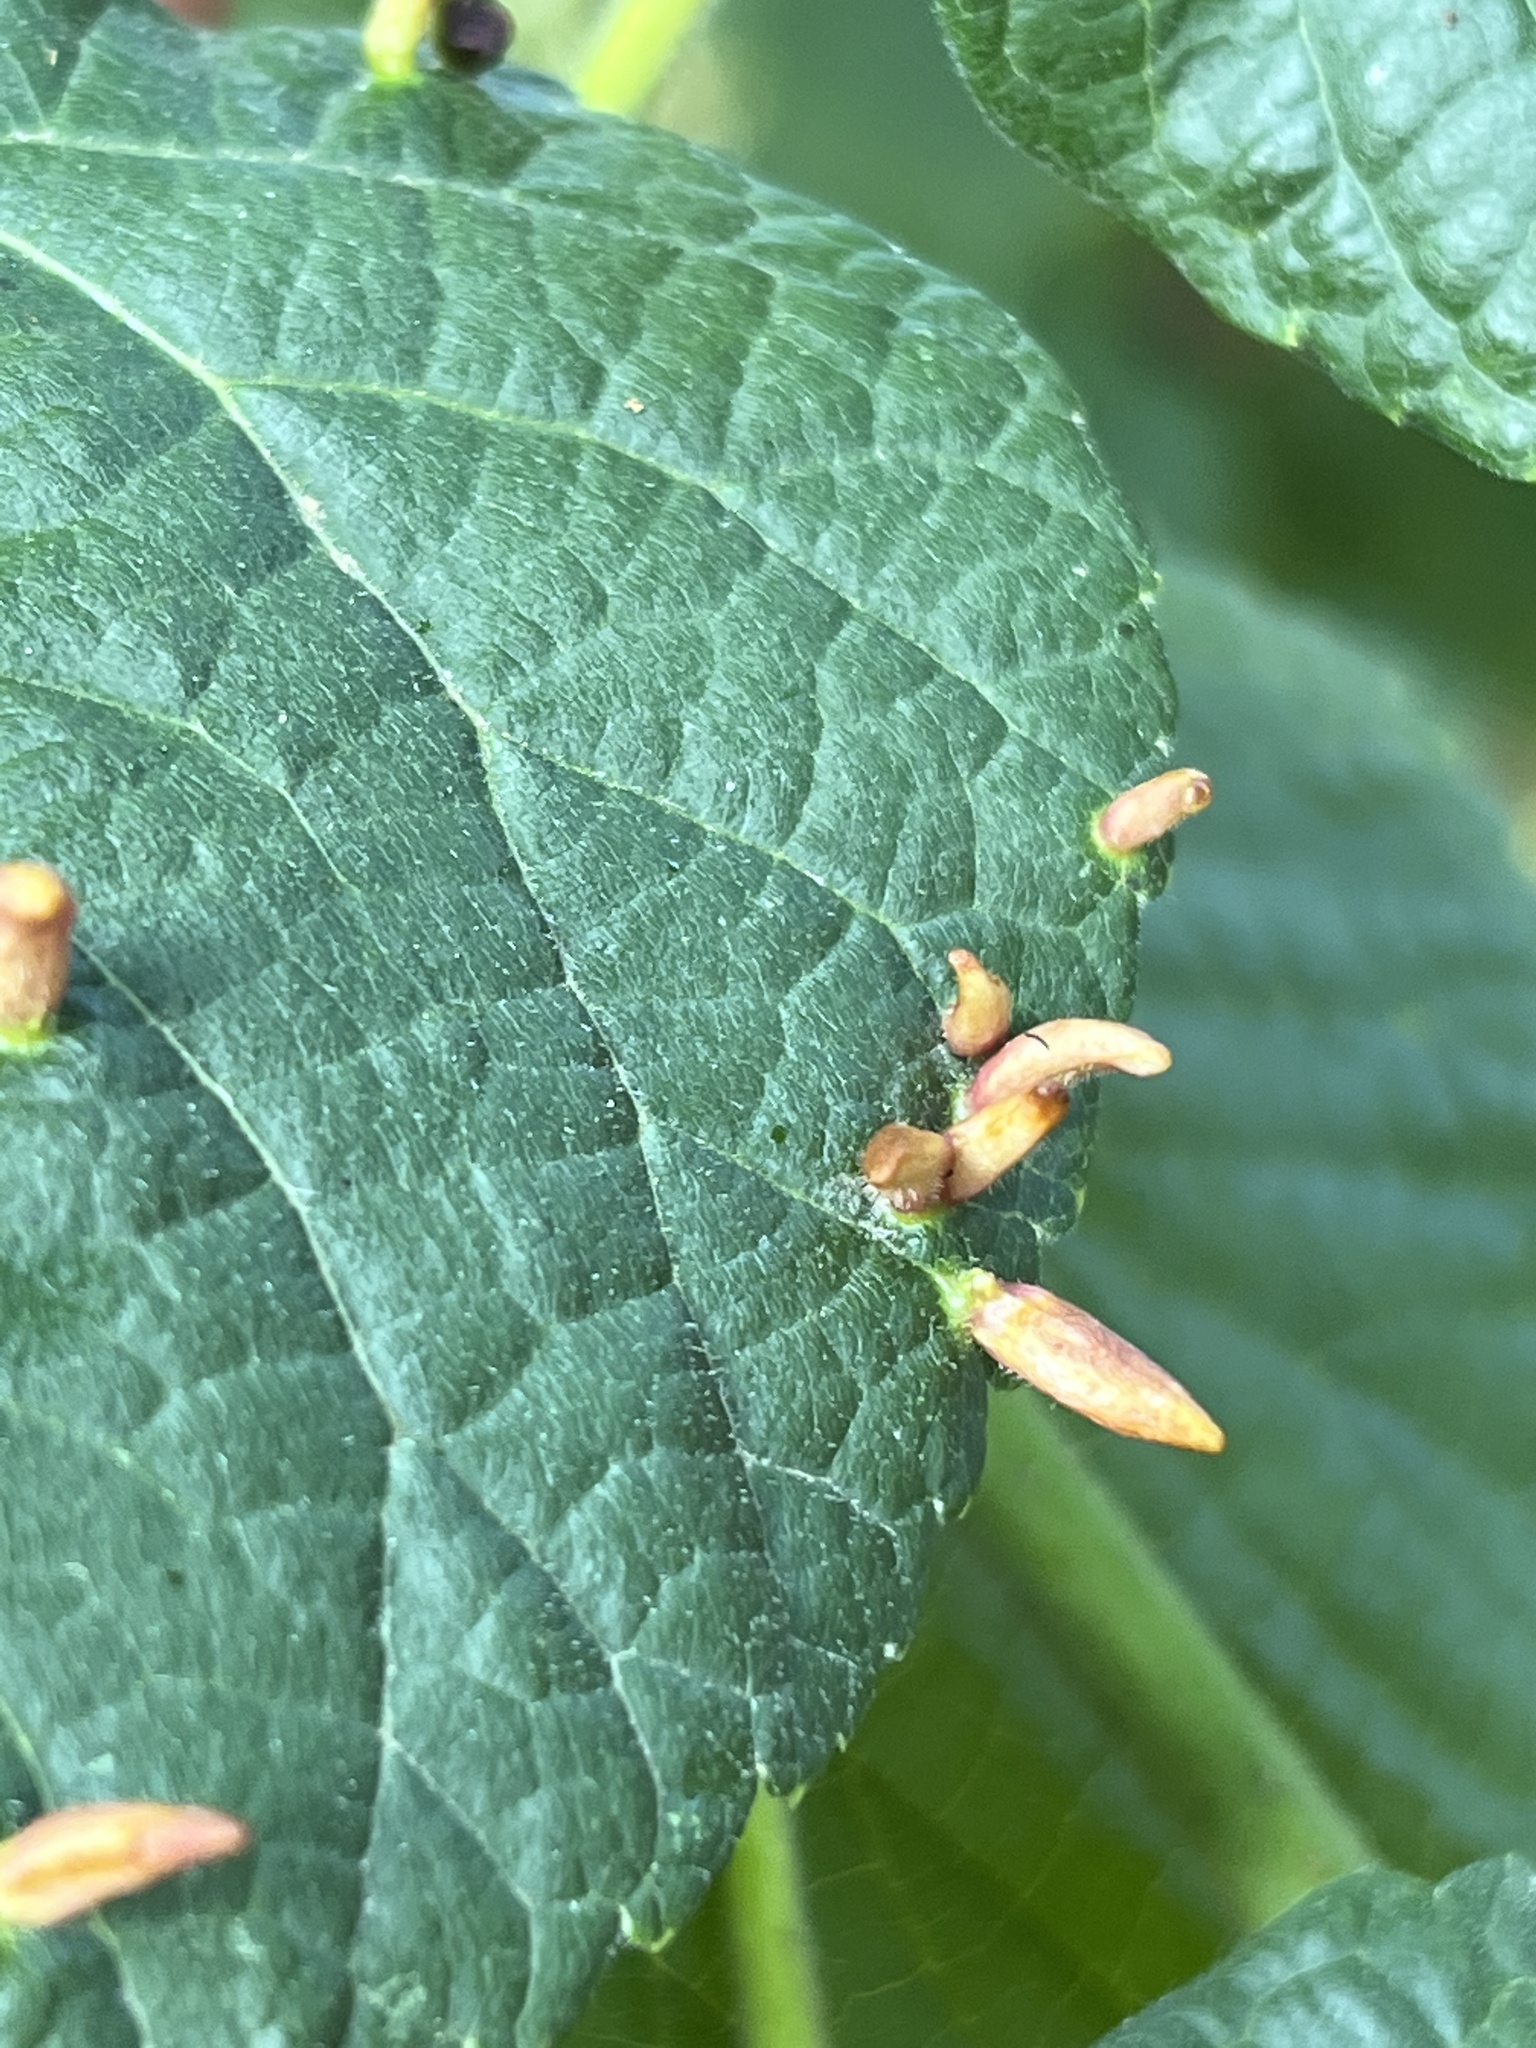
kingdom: Animalia
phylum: Arthropoda
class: Arachnida
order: Trombidiformes
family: Eriophyidae
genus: Eriophyes
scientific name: Eriophyes tiliae
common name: Red nail gall mite
